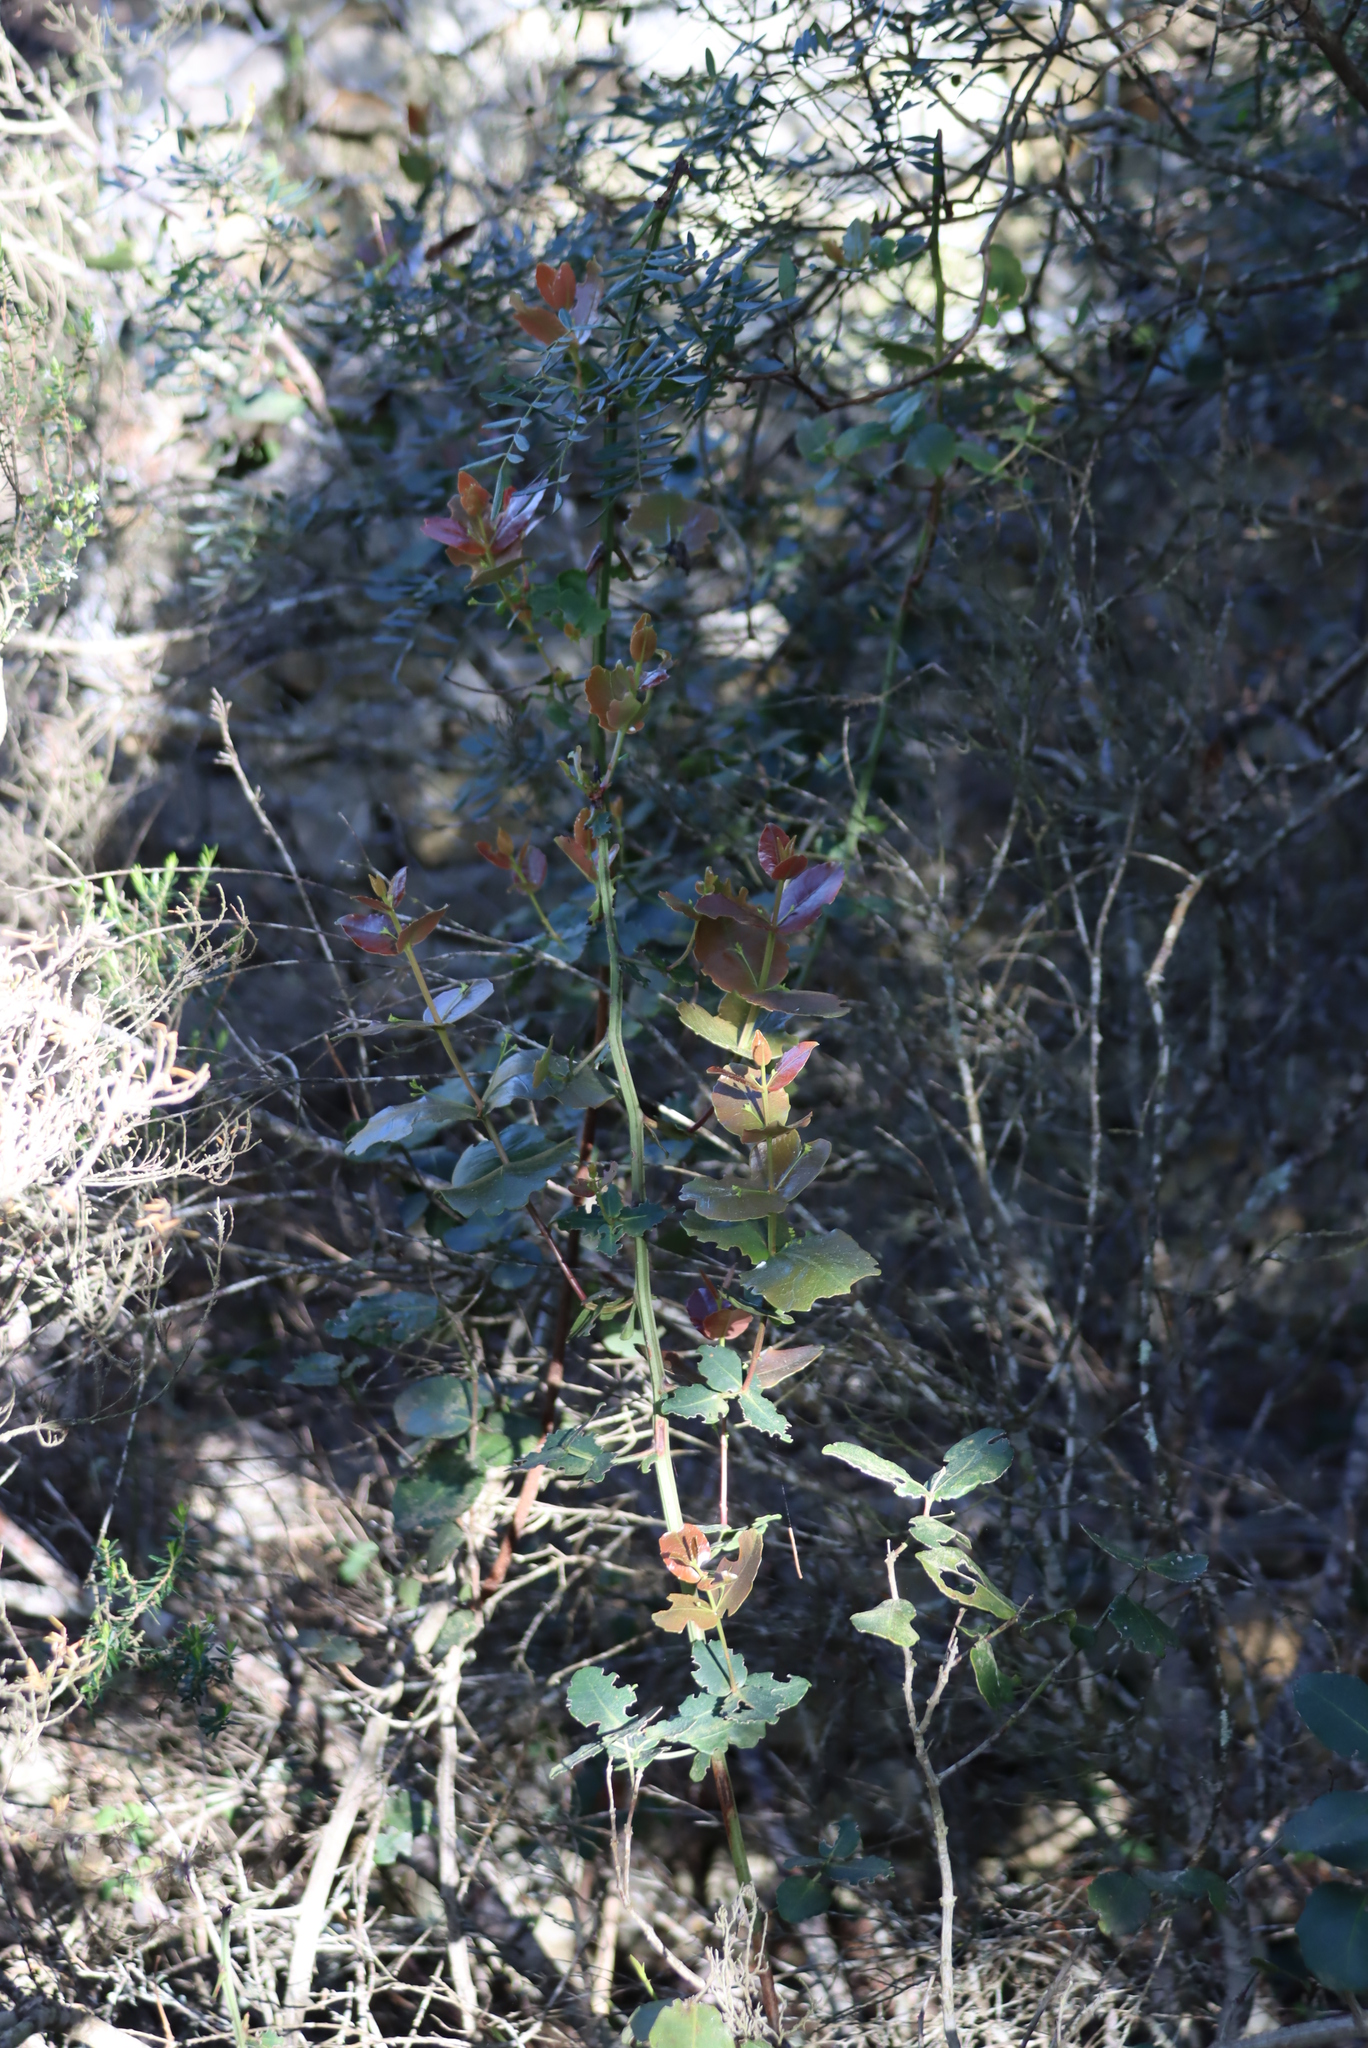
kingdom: Plantae
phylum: Tracheophyta
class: Magnoliopsida
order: Celastrales
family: Celastraceae
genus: Lauridia
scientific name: Lauridia tetragona
